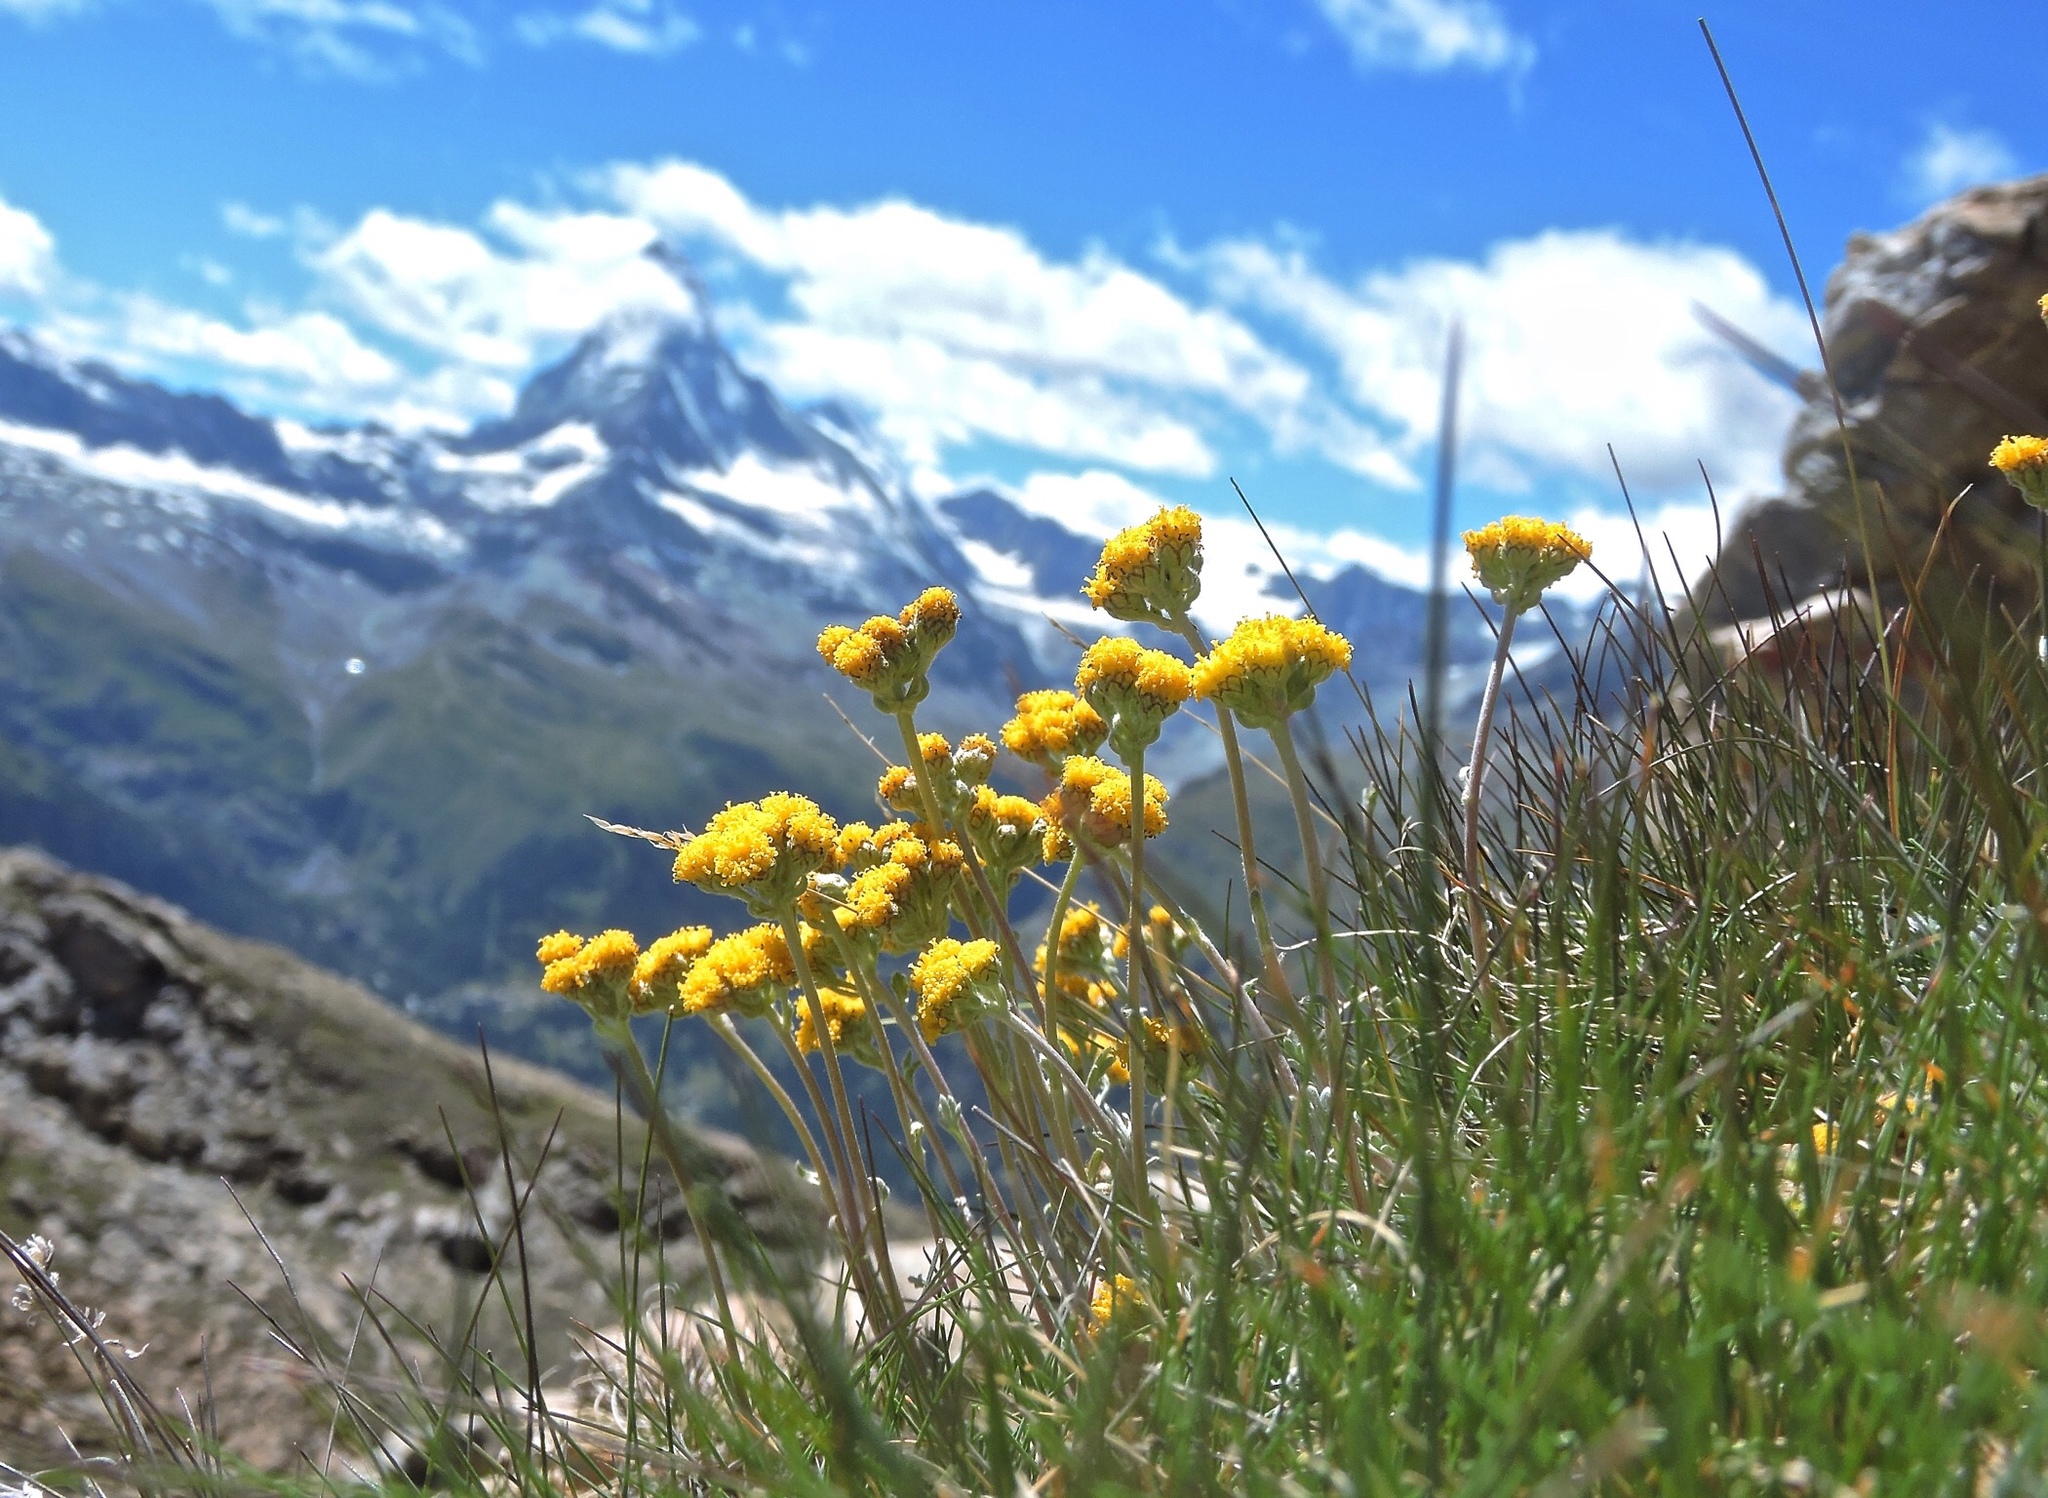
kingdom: Plantae
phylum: Tracheophyta
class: Magnoliopsida
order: Asterales
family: Asteraceae
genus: Artemisia
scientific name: Artemisia glacialis
